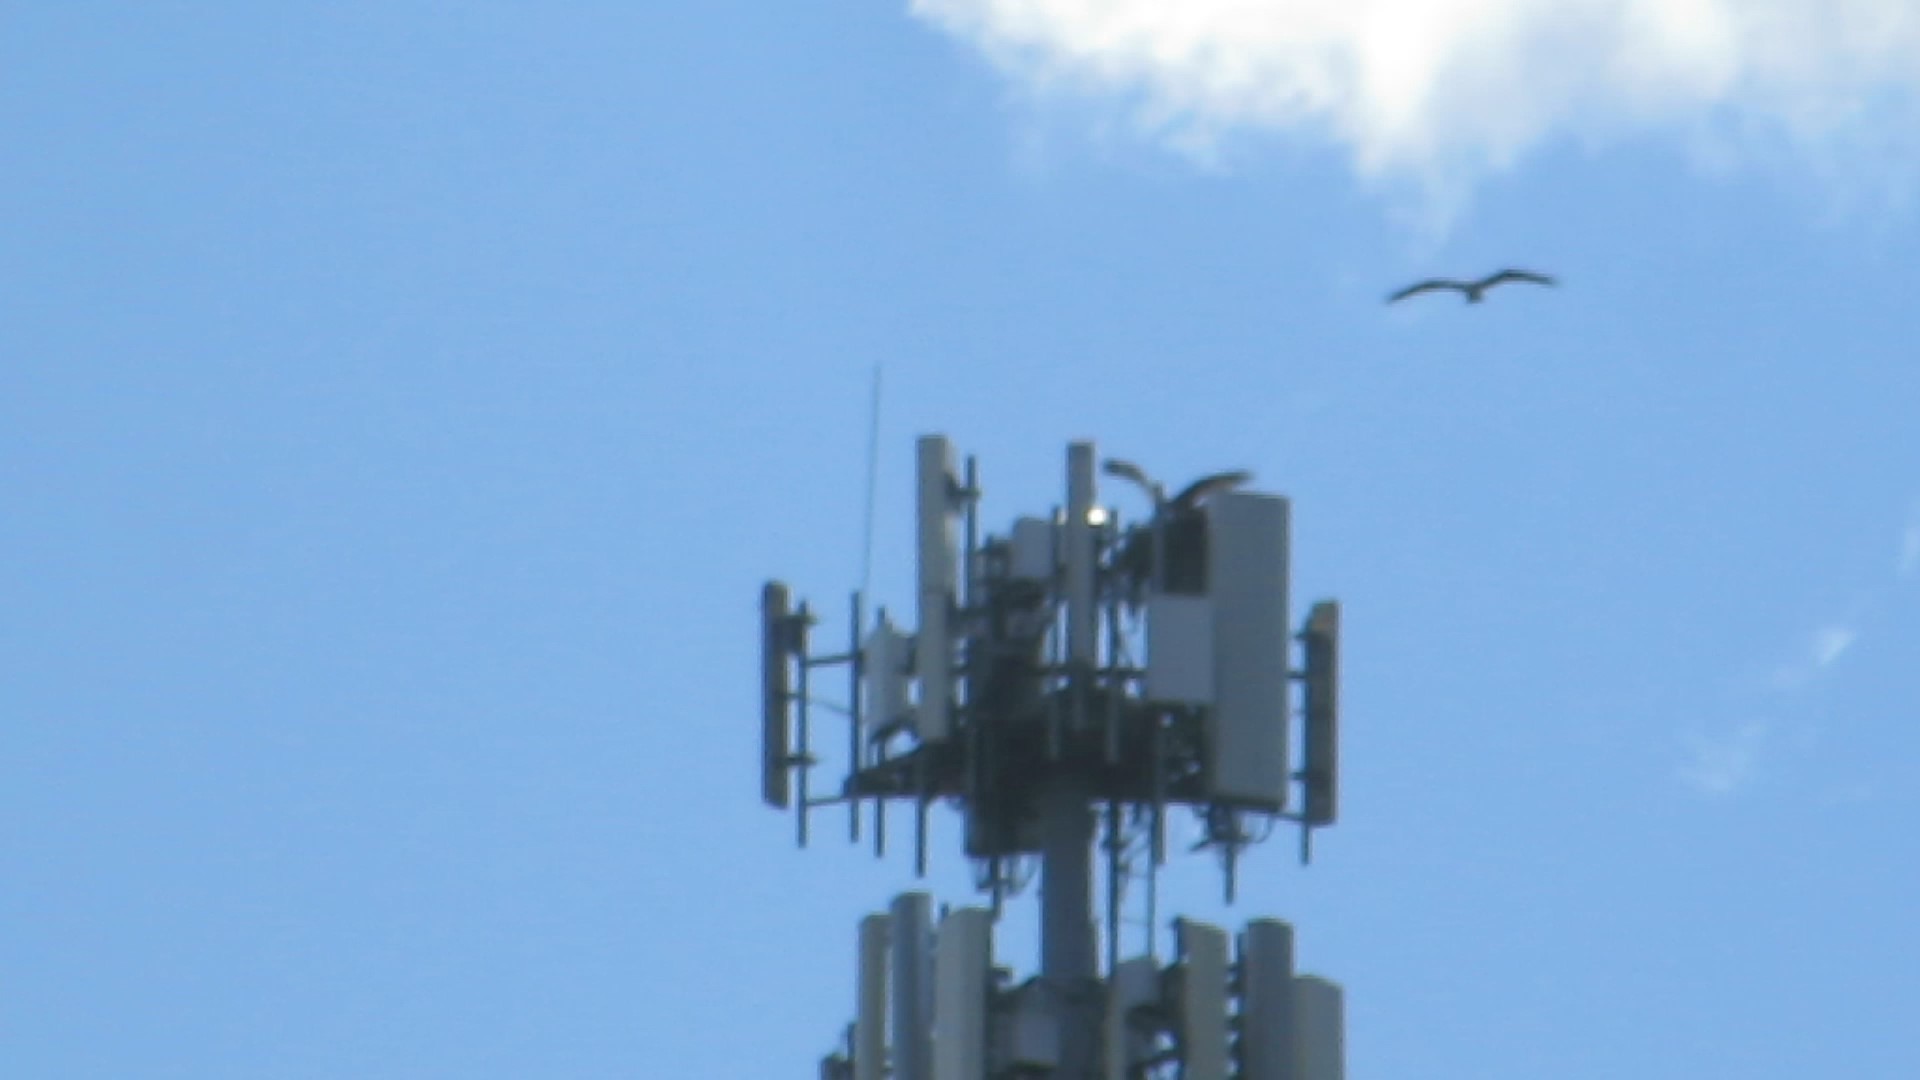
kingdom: Animalia
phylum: Chordata
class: Aves
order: Accipitriformes
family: Pandionidae
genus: Pandion
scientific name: Pandion haliaetus
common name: Osprey
